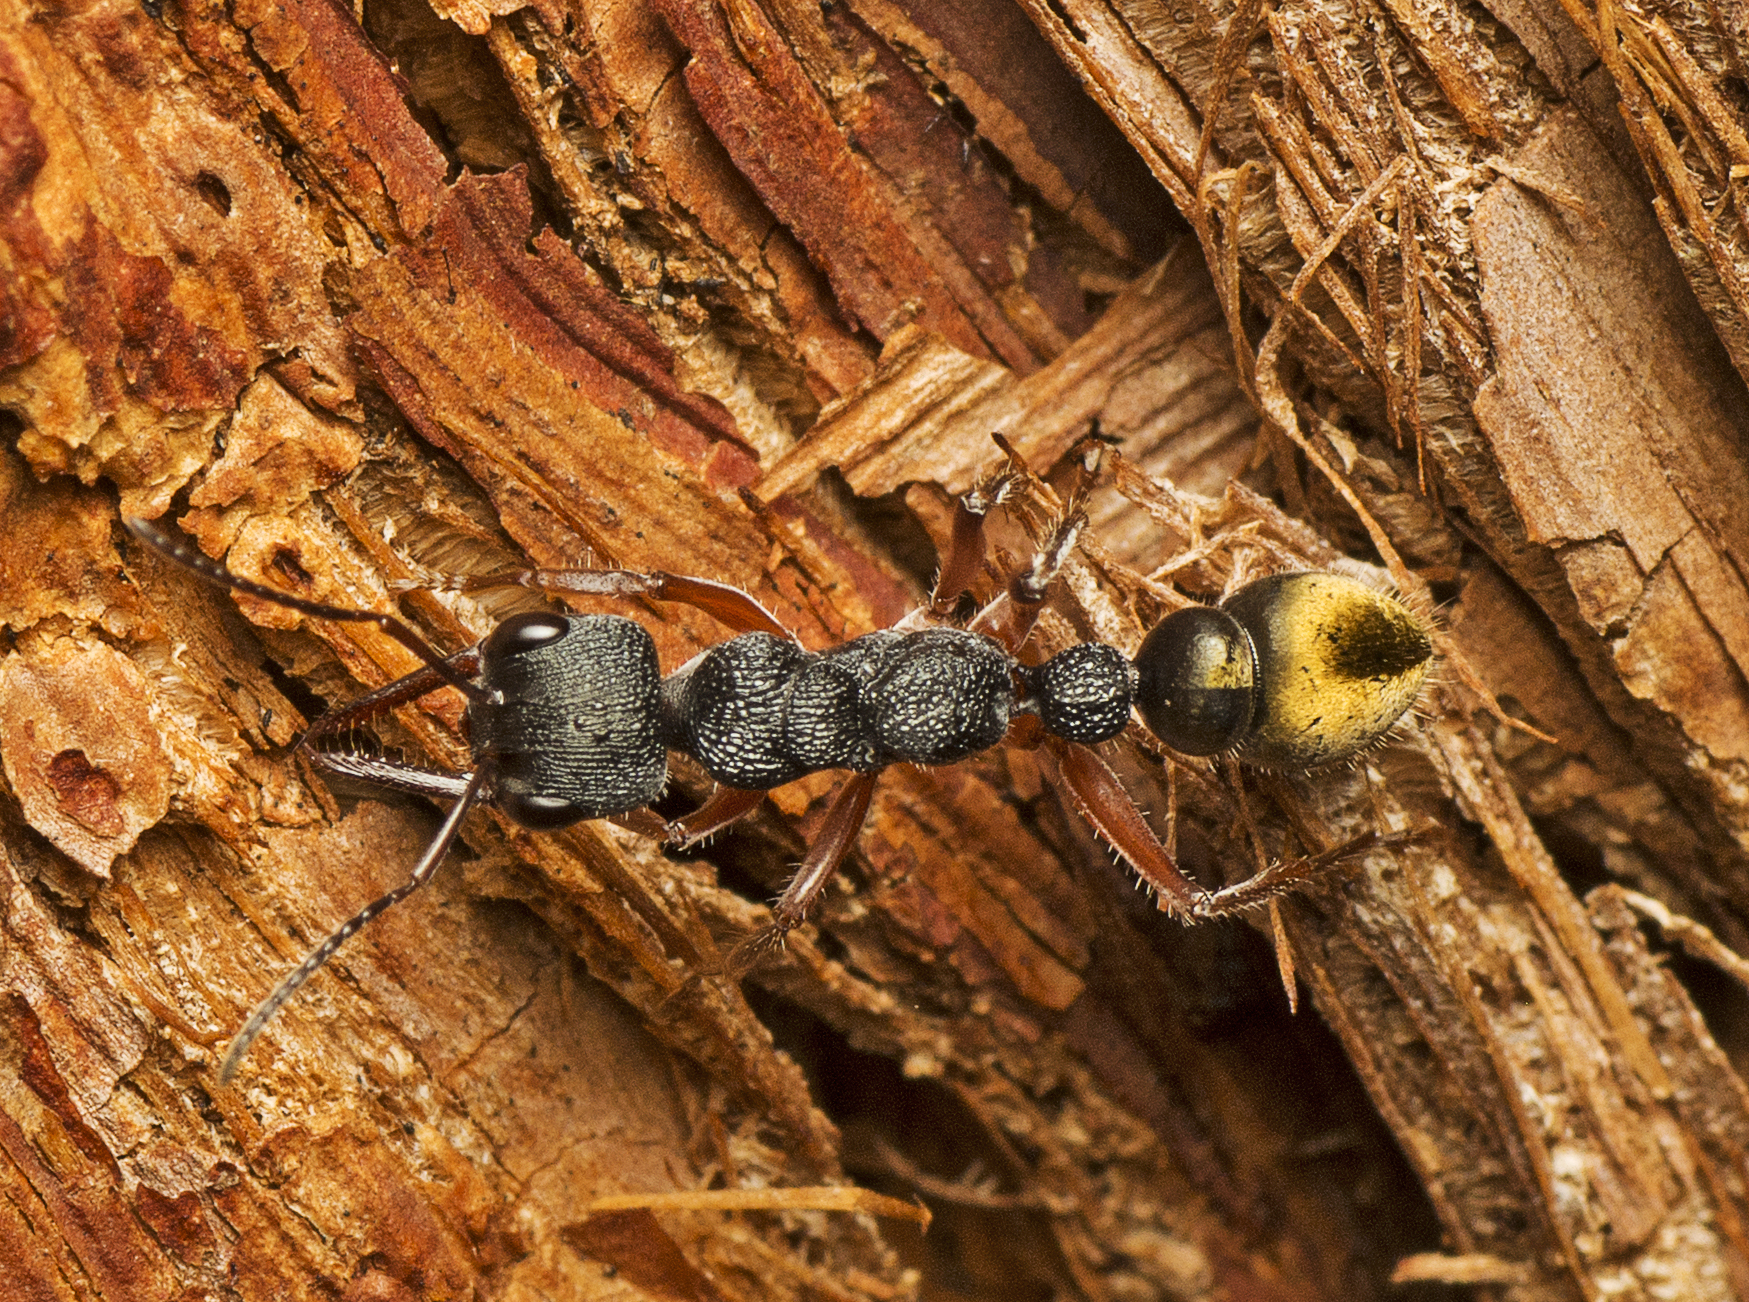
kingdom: Animalia
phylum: Arthropoda
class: Insecta
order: Hymenoptera
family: Formicidae
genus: Myrmecia
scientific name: Myrmecia fulvipes
